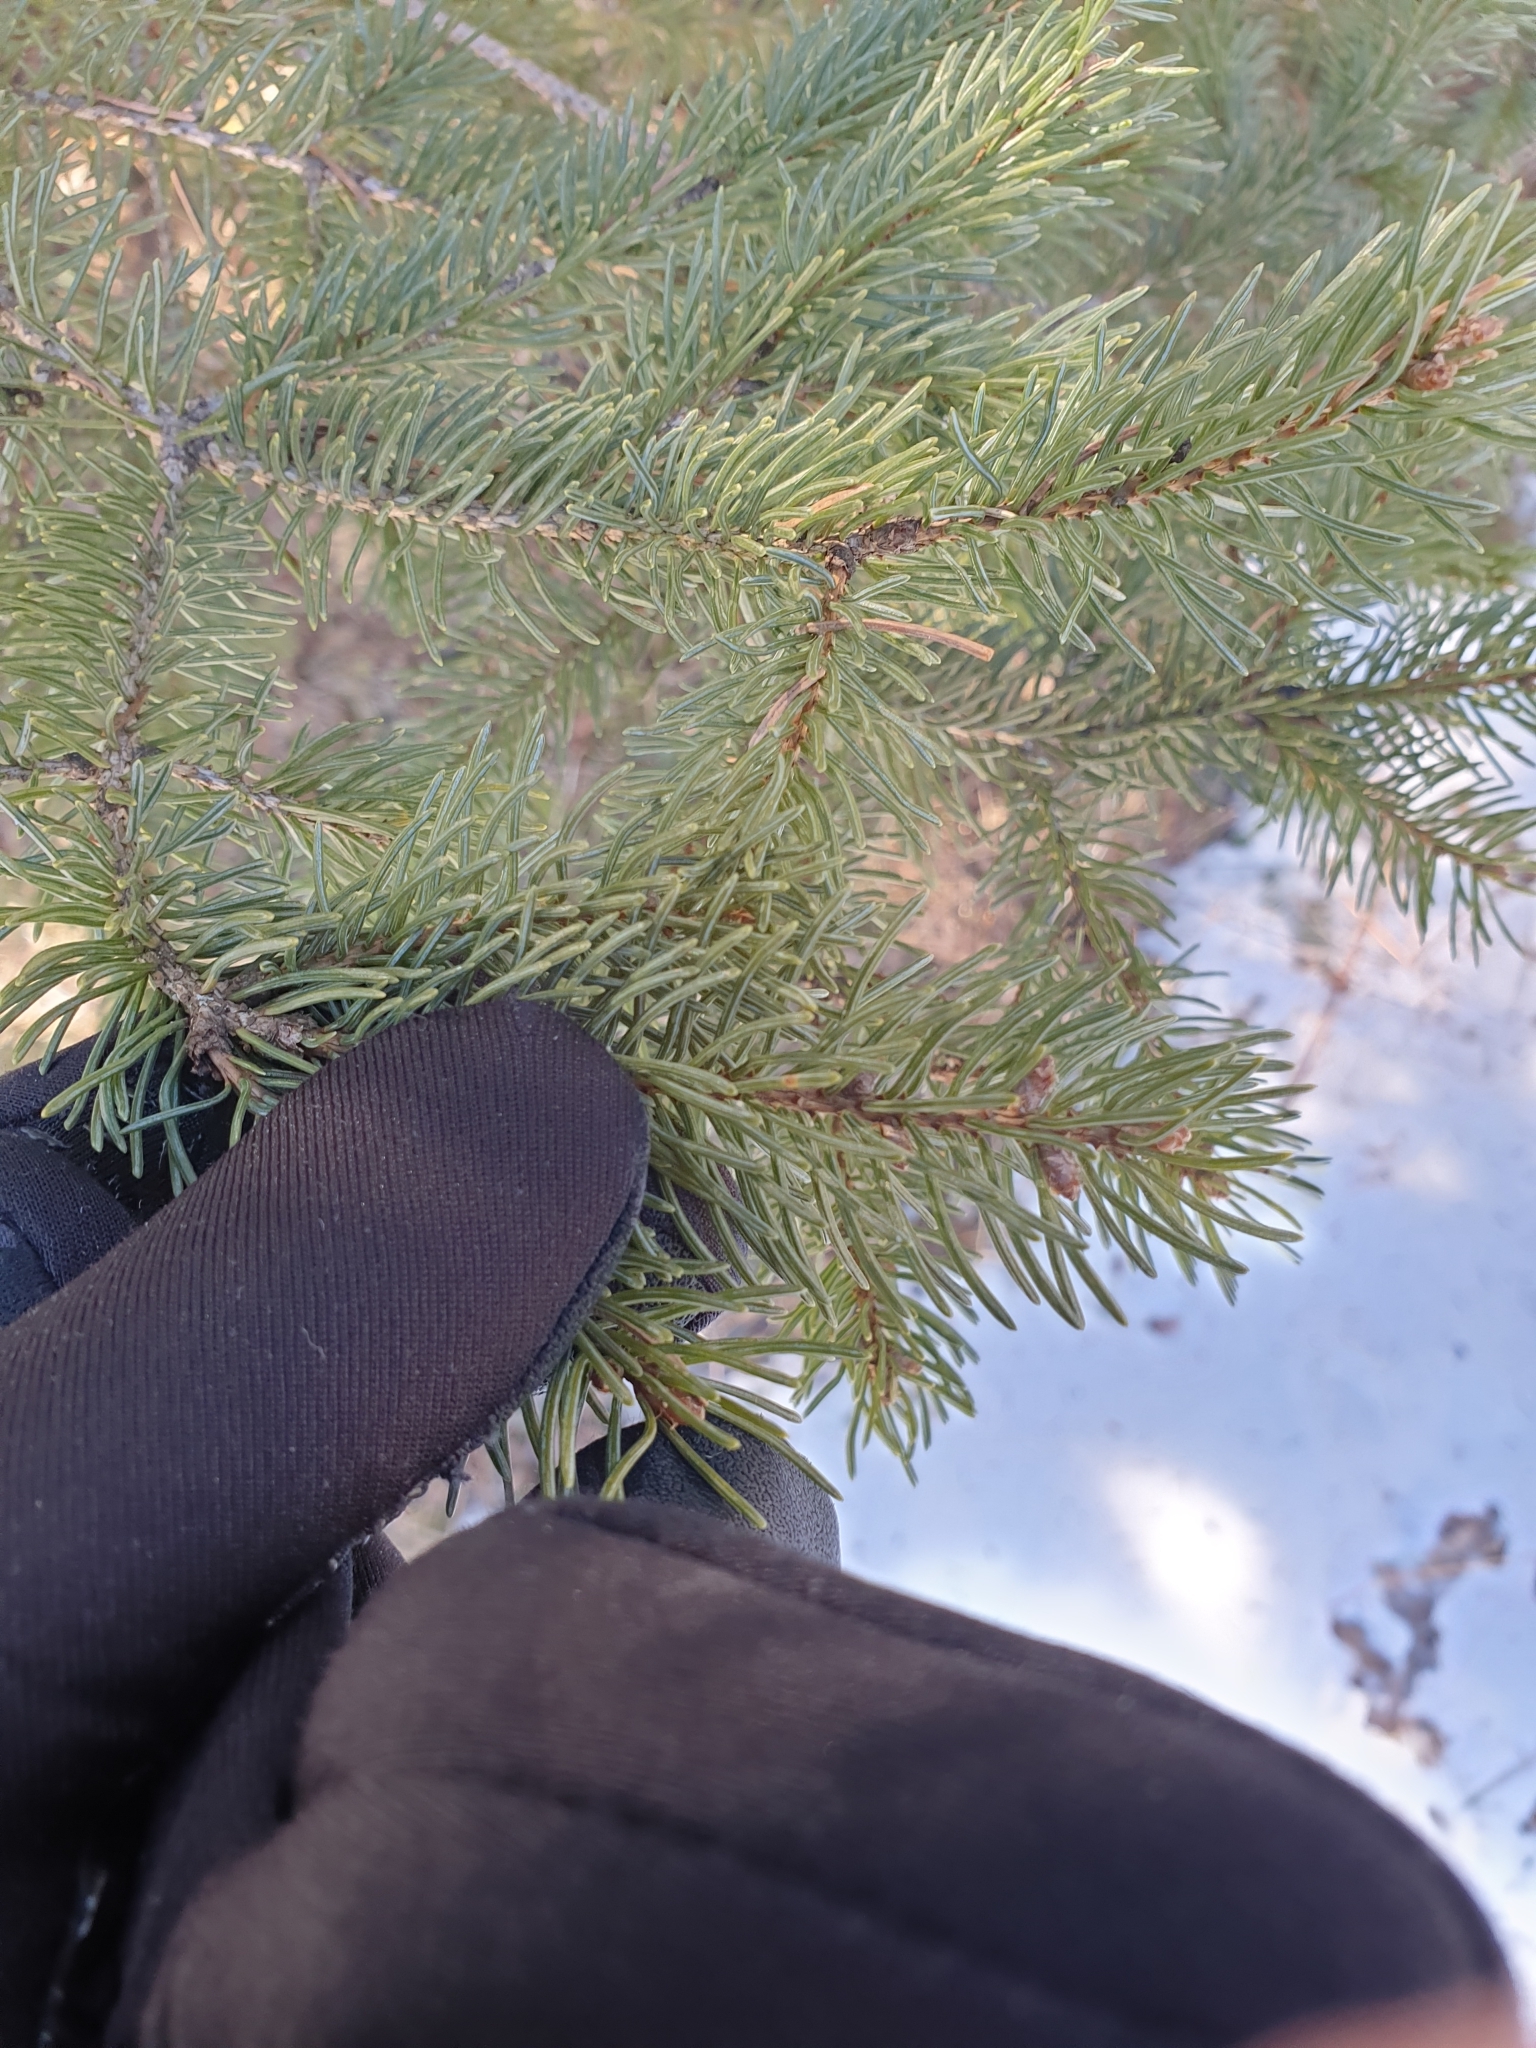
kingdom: Plantae
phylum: Tracheophyta
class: Pinopsida
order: Pinales
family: Pinaceae
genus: Picea
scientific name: Picea glauca
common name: White spruce
